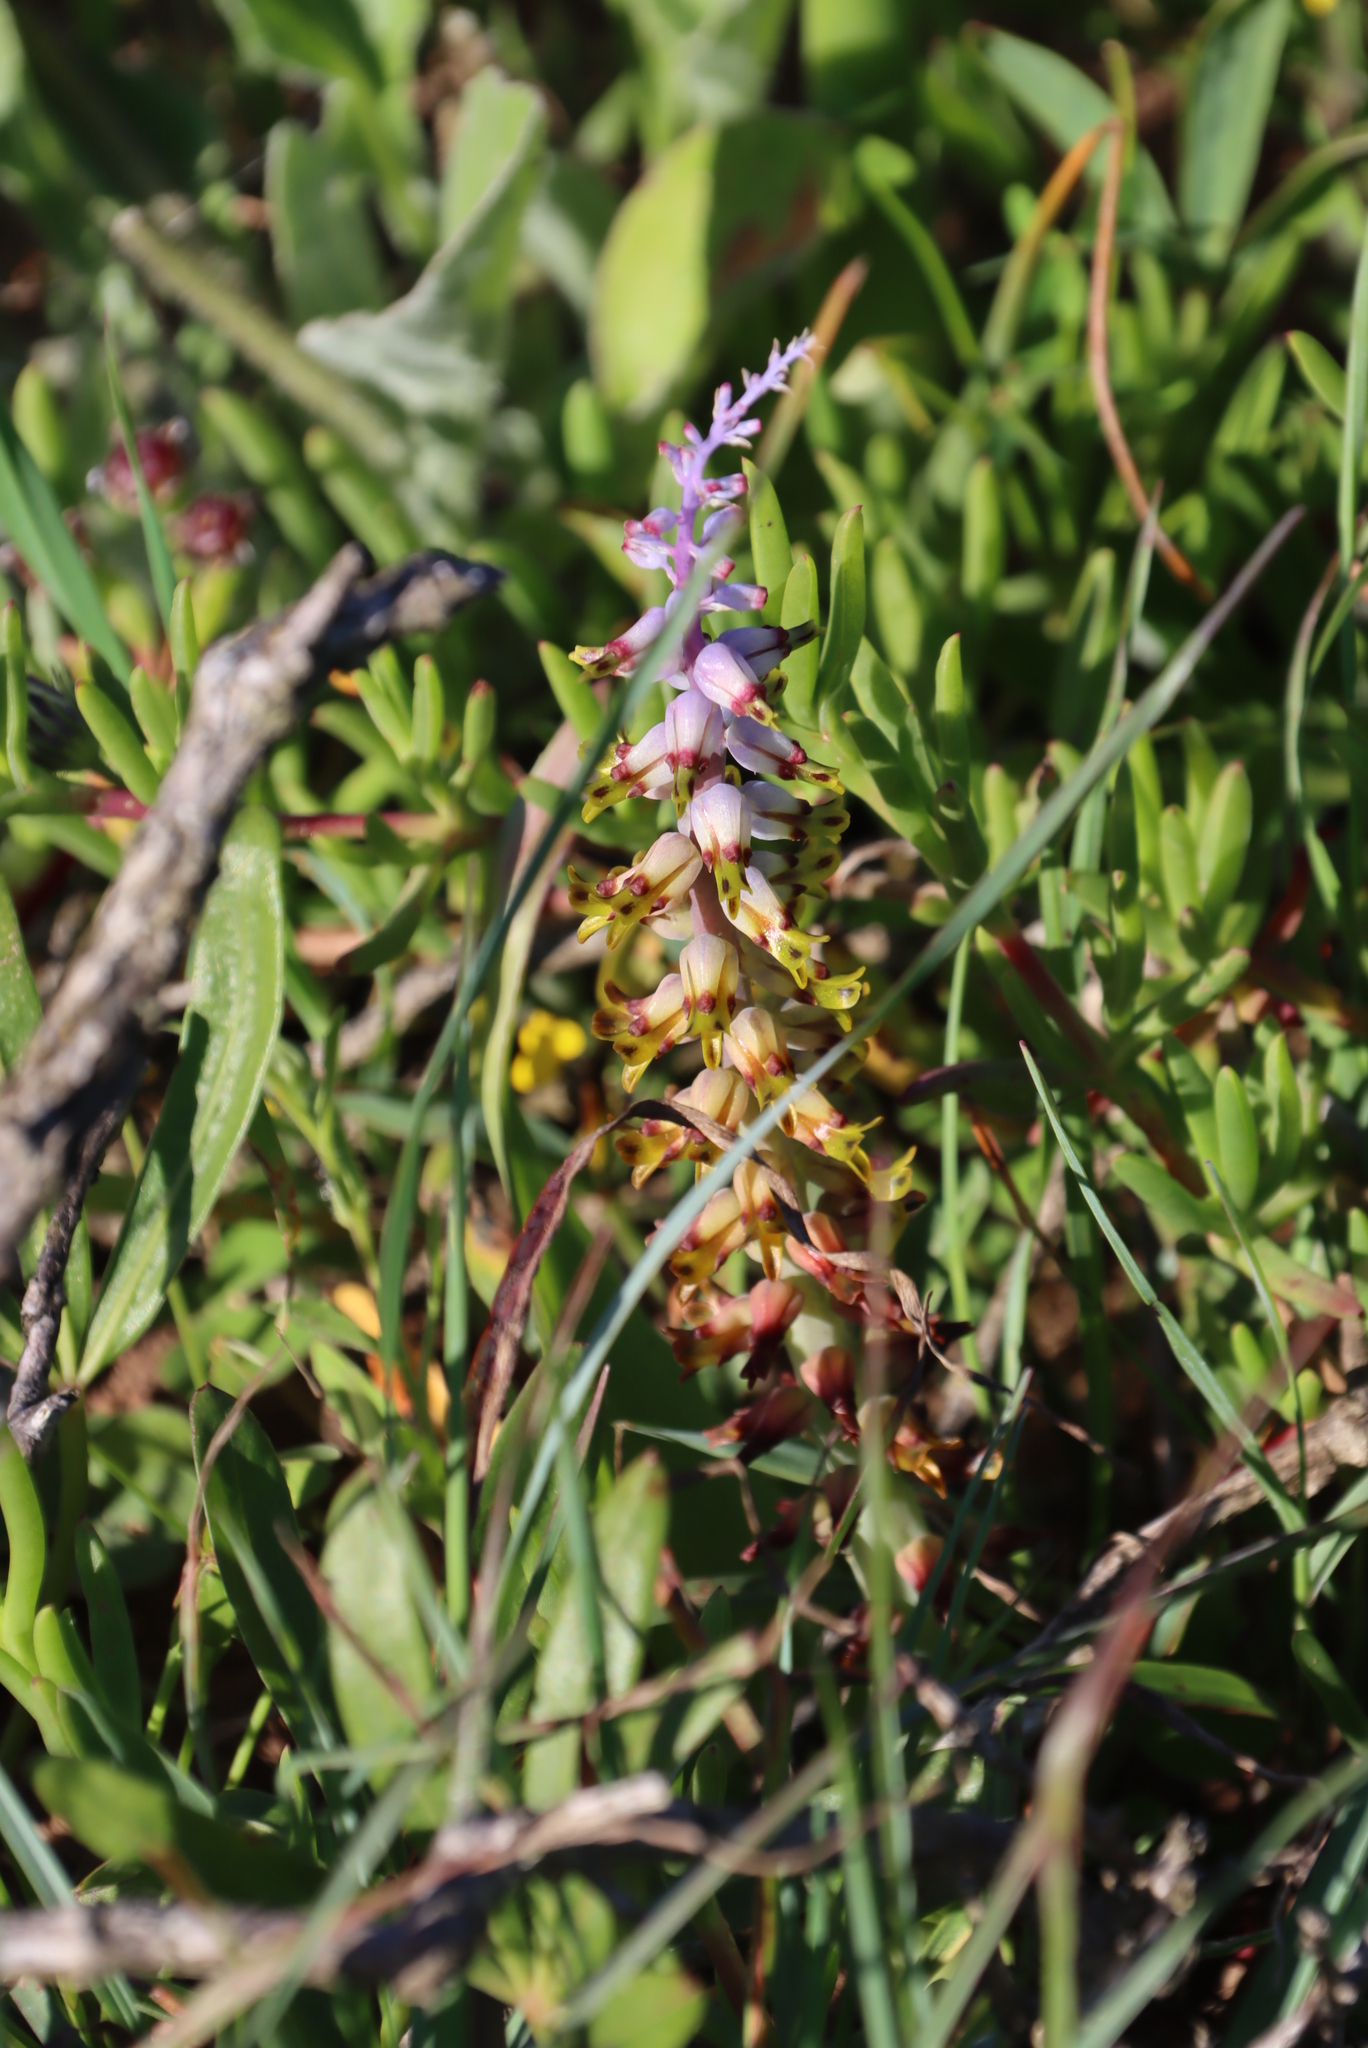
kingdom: Plantae
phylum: Tracheophyta
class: Liliopsida
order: Asparagales
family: Asparagaceae
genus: Lachenalia
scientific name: Lachenalia mutabilis
